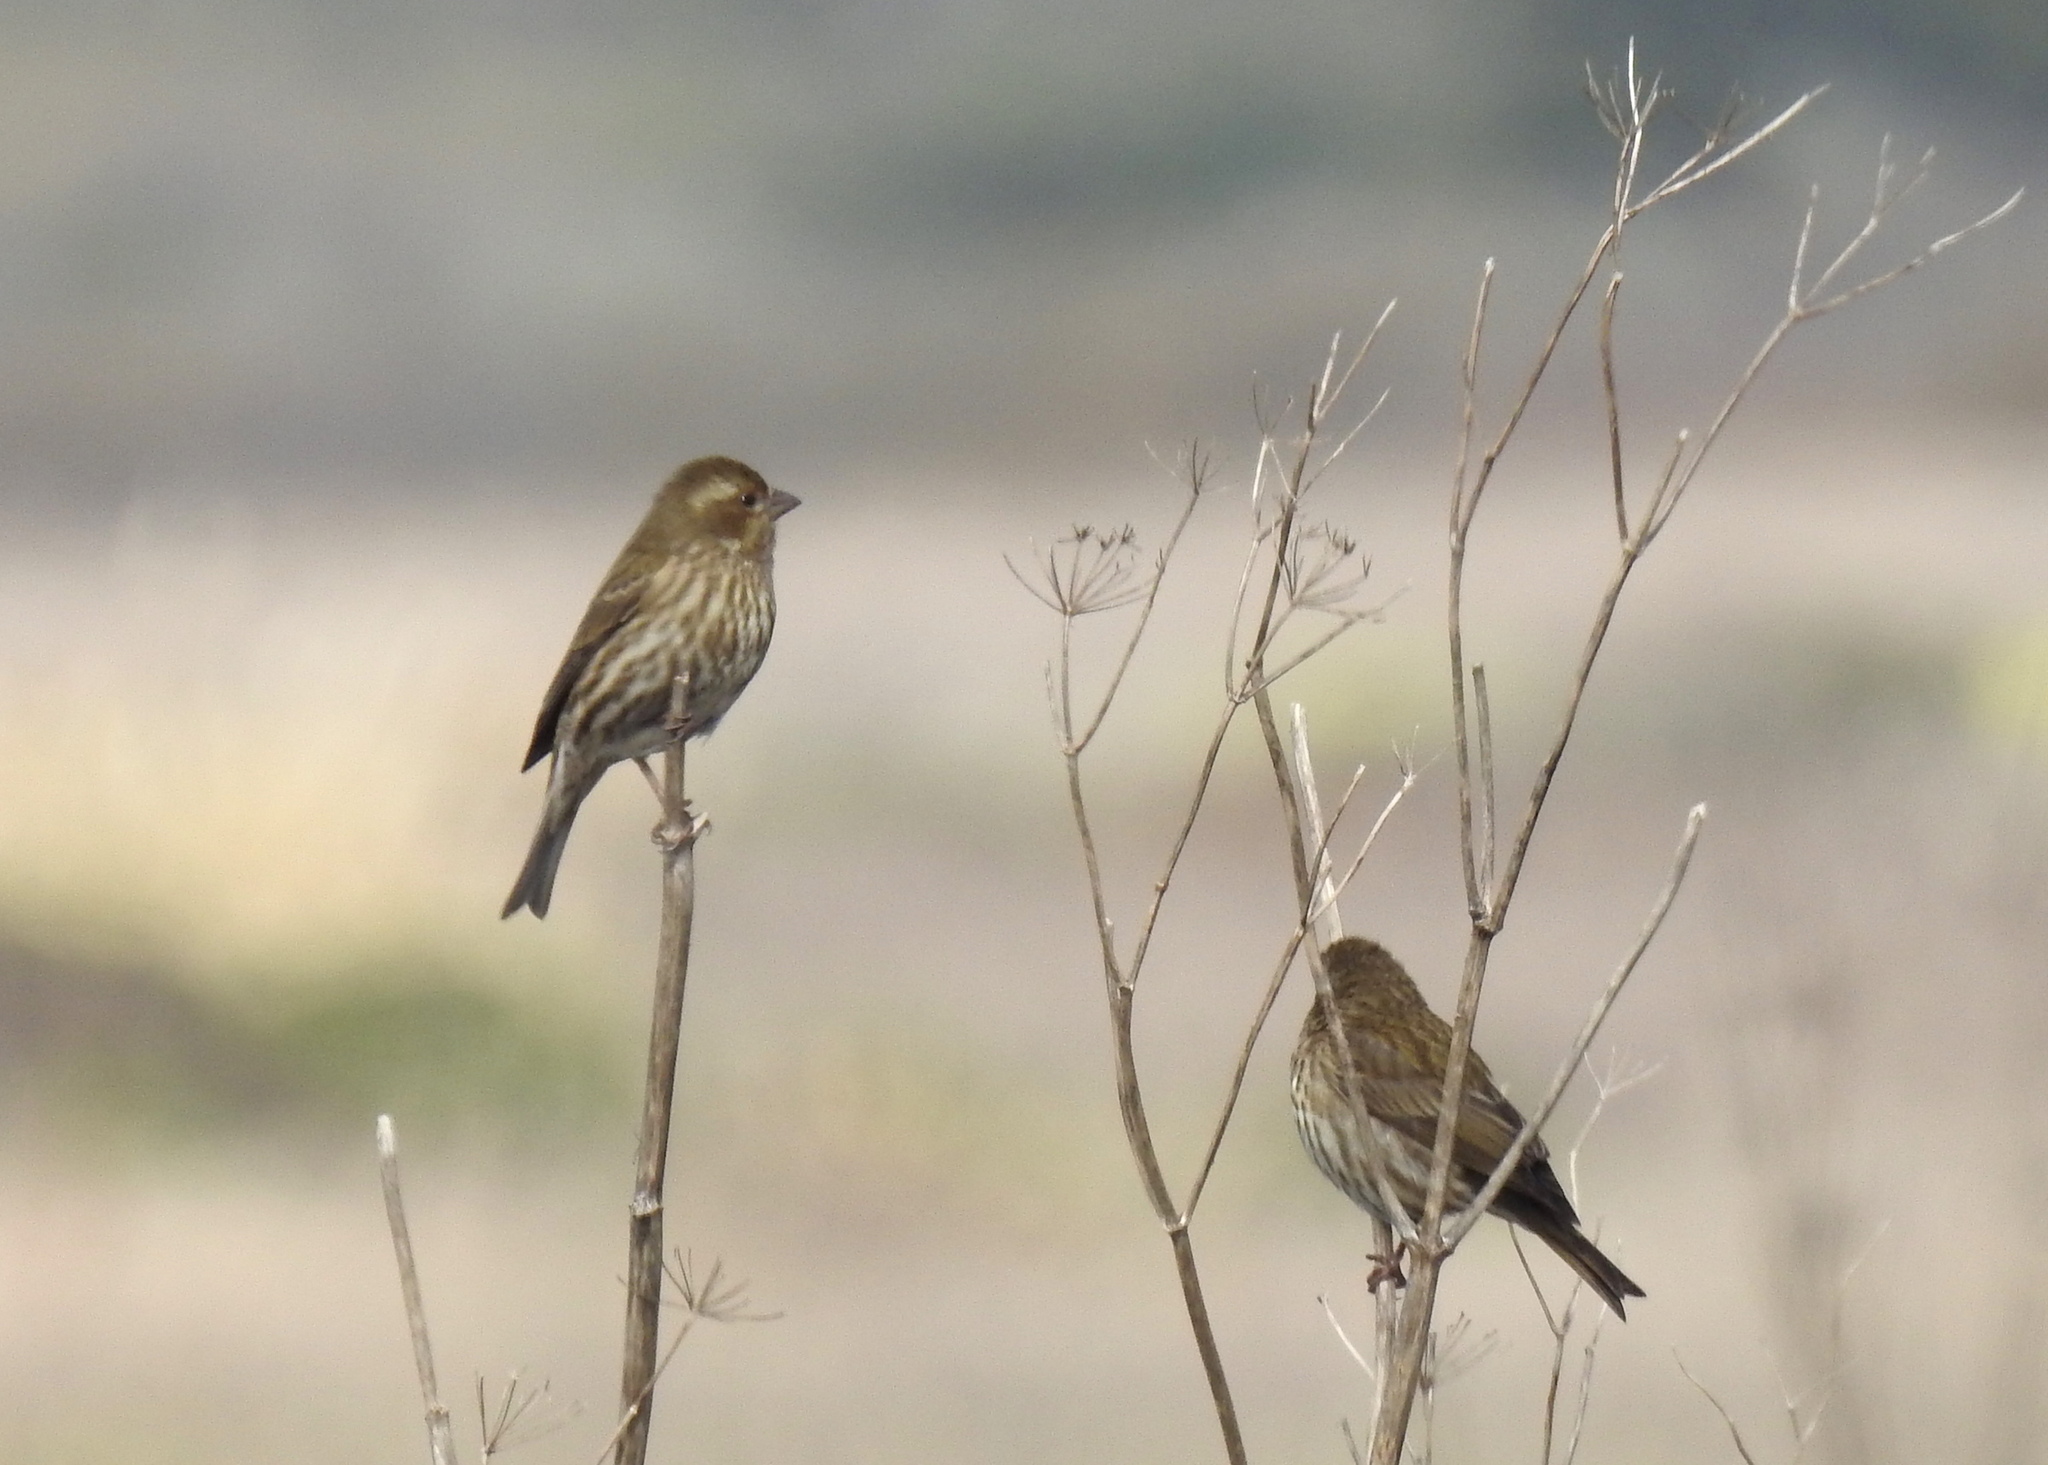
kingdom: Animalia
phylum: Chordata
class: Aves
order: Passeriformes
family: Fringillidae
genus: Haemorhous
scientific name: Haemorhous purpureus
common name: Purple finch
